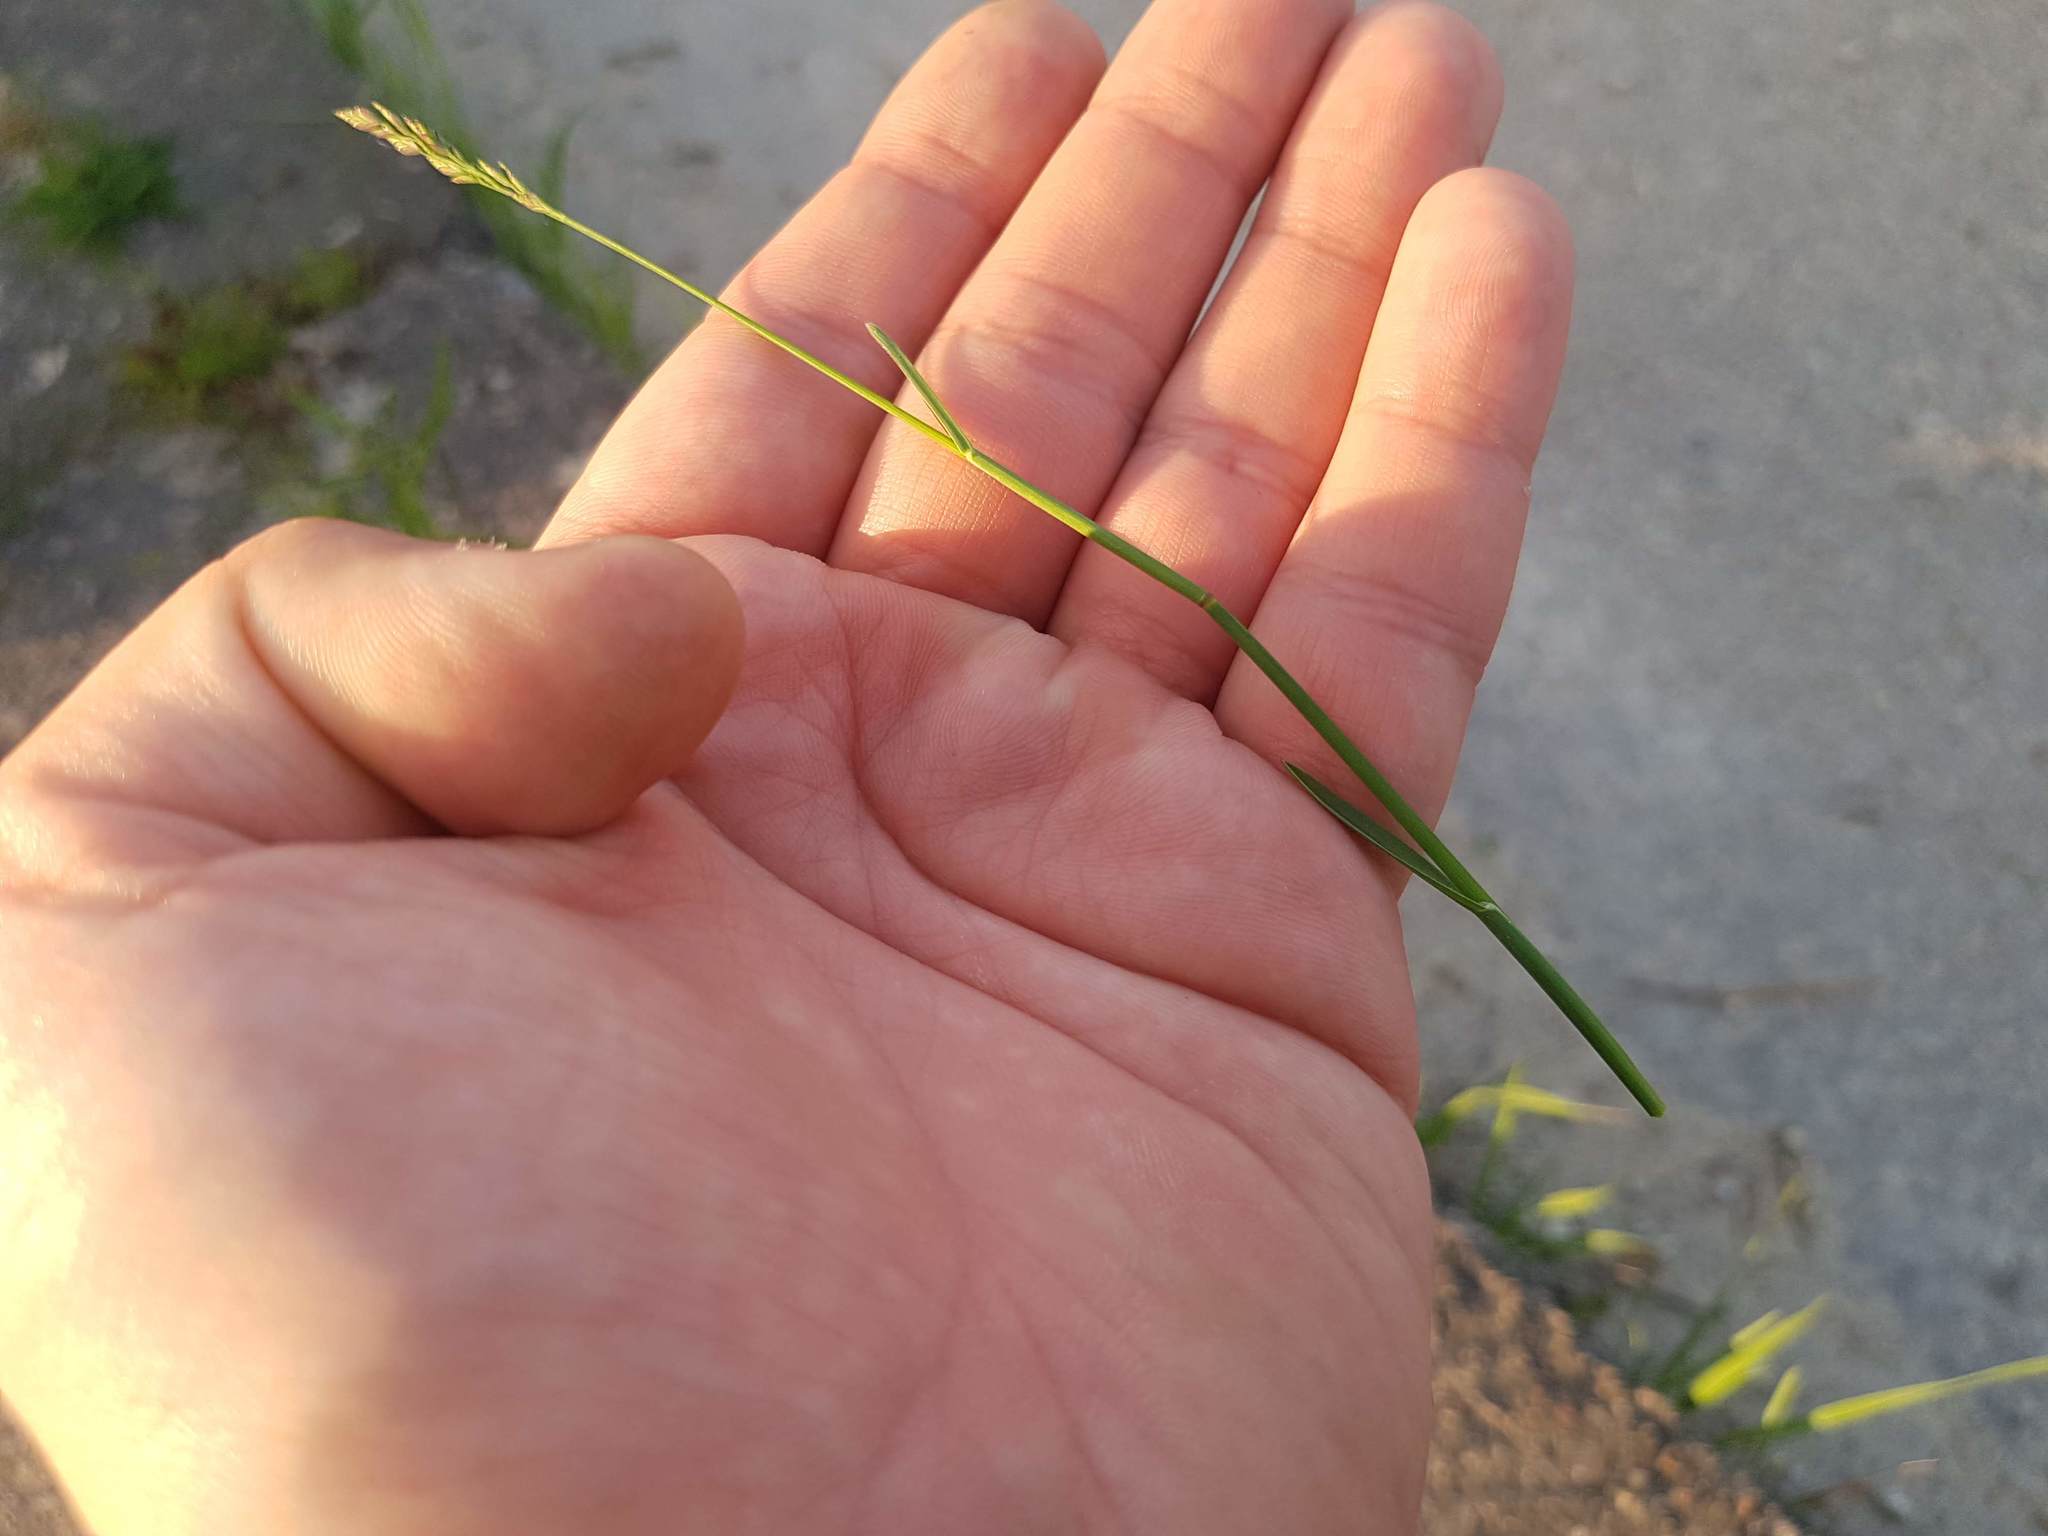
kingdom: Plantae
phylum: Tracheophyta
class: Liliopsida
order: Poales
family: Poaceae
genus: Poa
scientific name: Poa compressa
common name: Canada bluegrass
